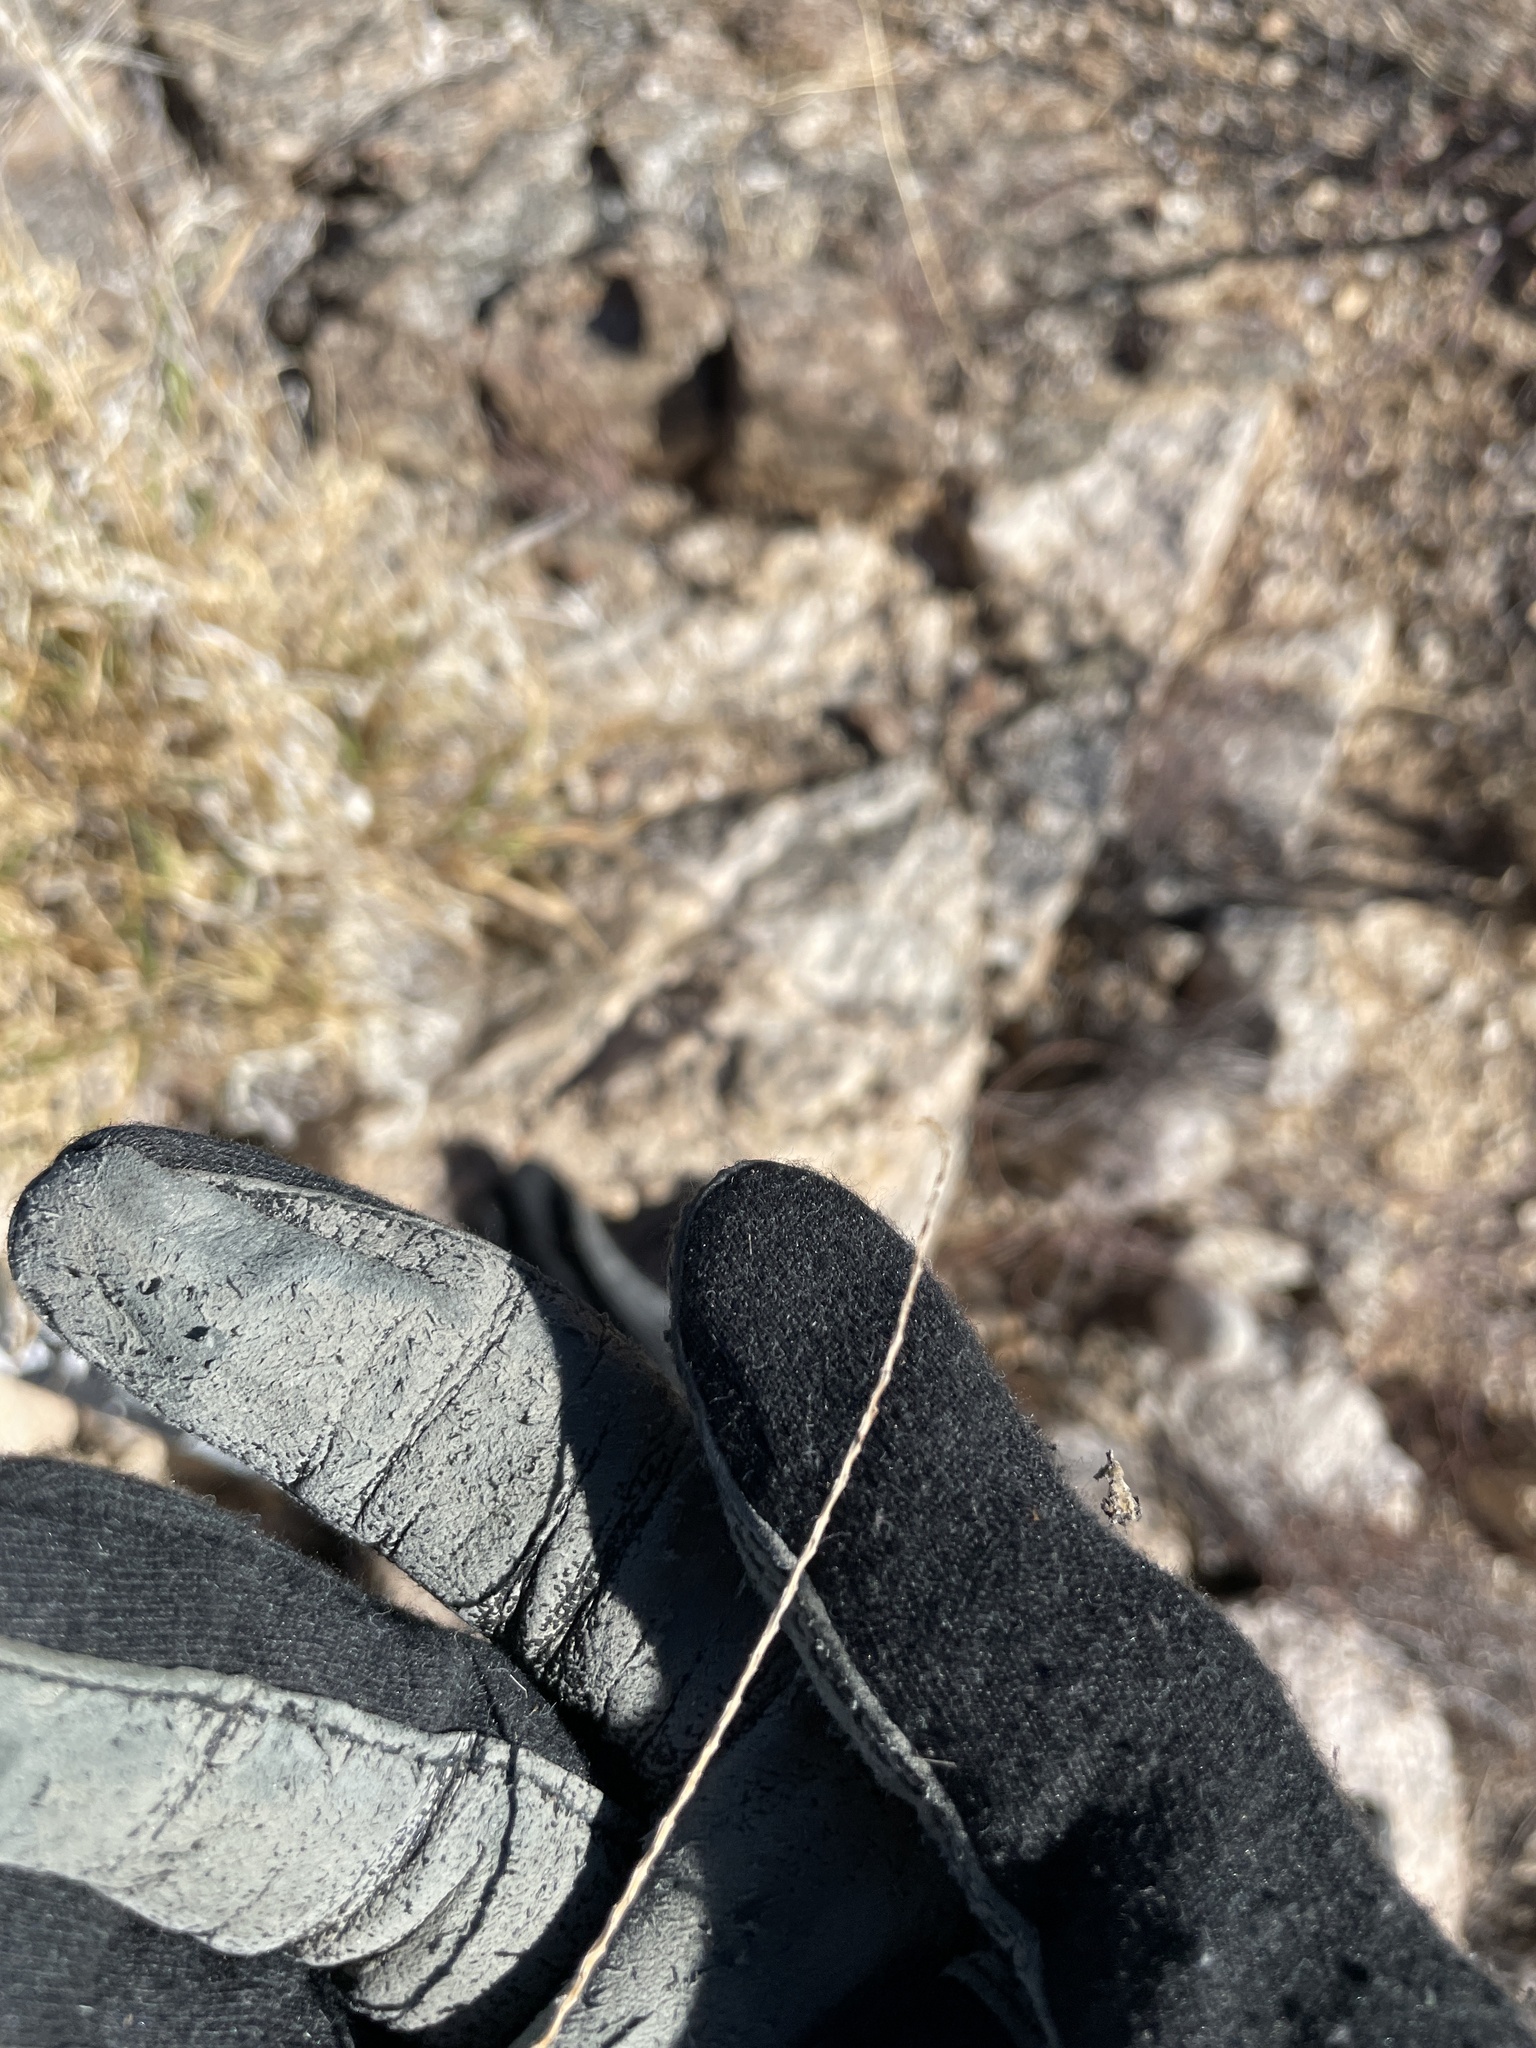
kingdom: Plantae
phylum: Tracheophyta
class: Liliopsida
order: Poales
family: Poaceae
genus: Cenchrus
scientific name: Cenchrus ciliaris
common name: Buffelgrass
